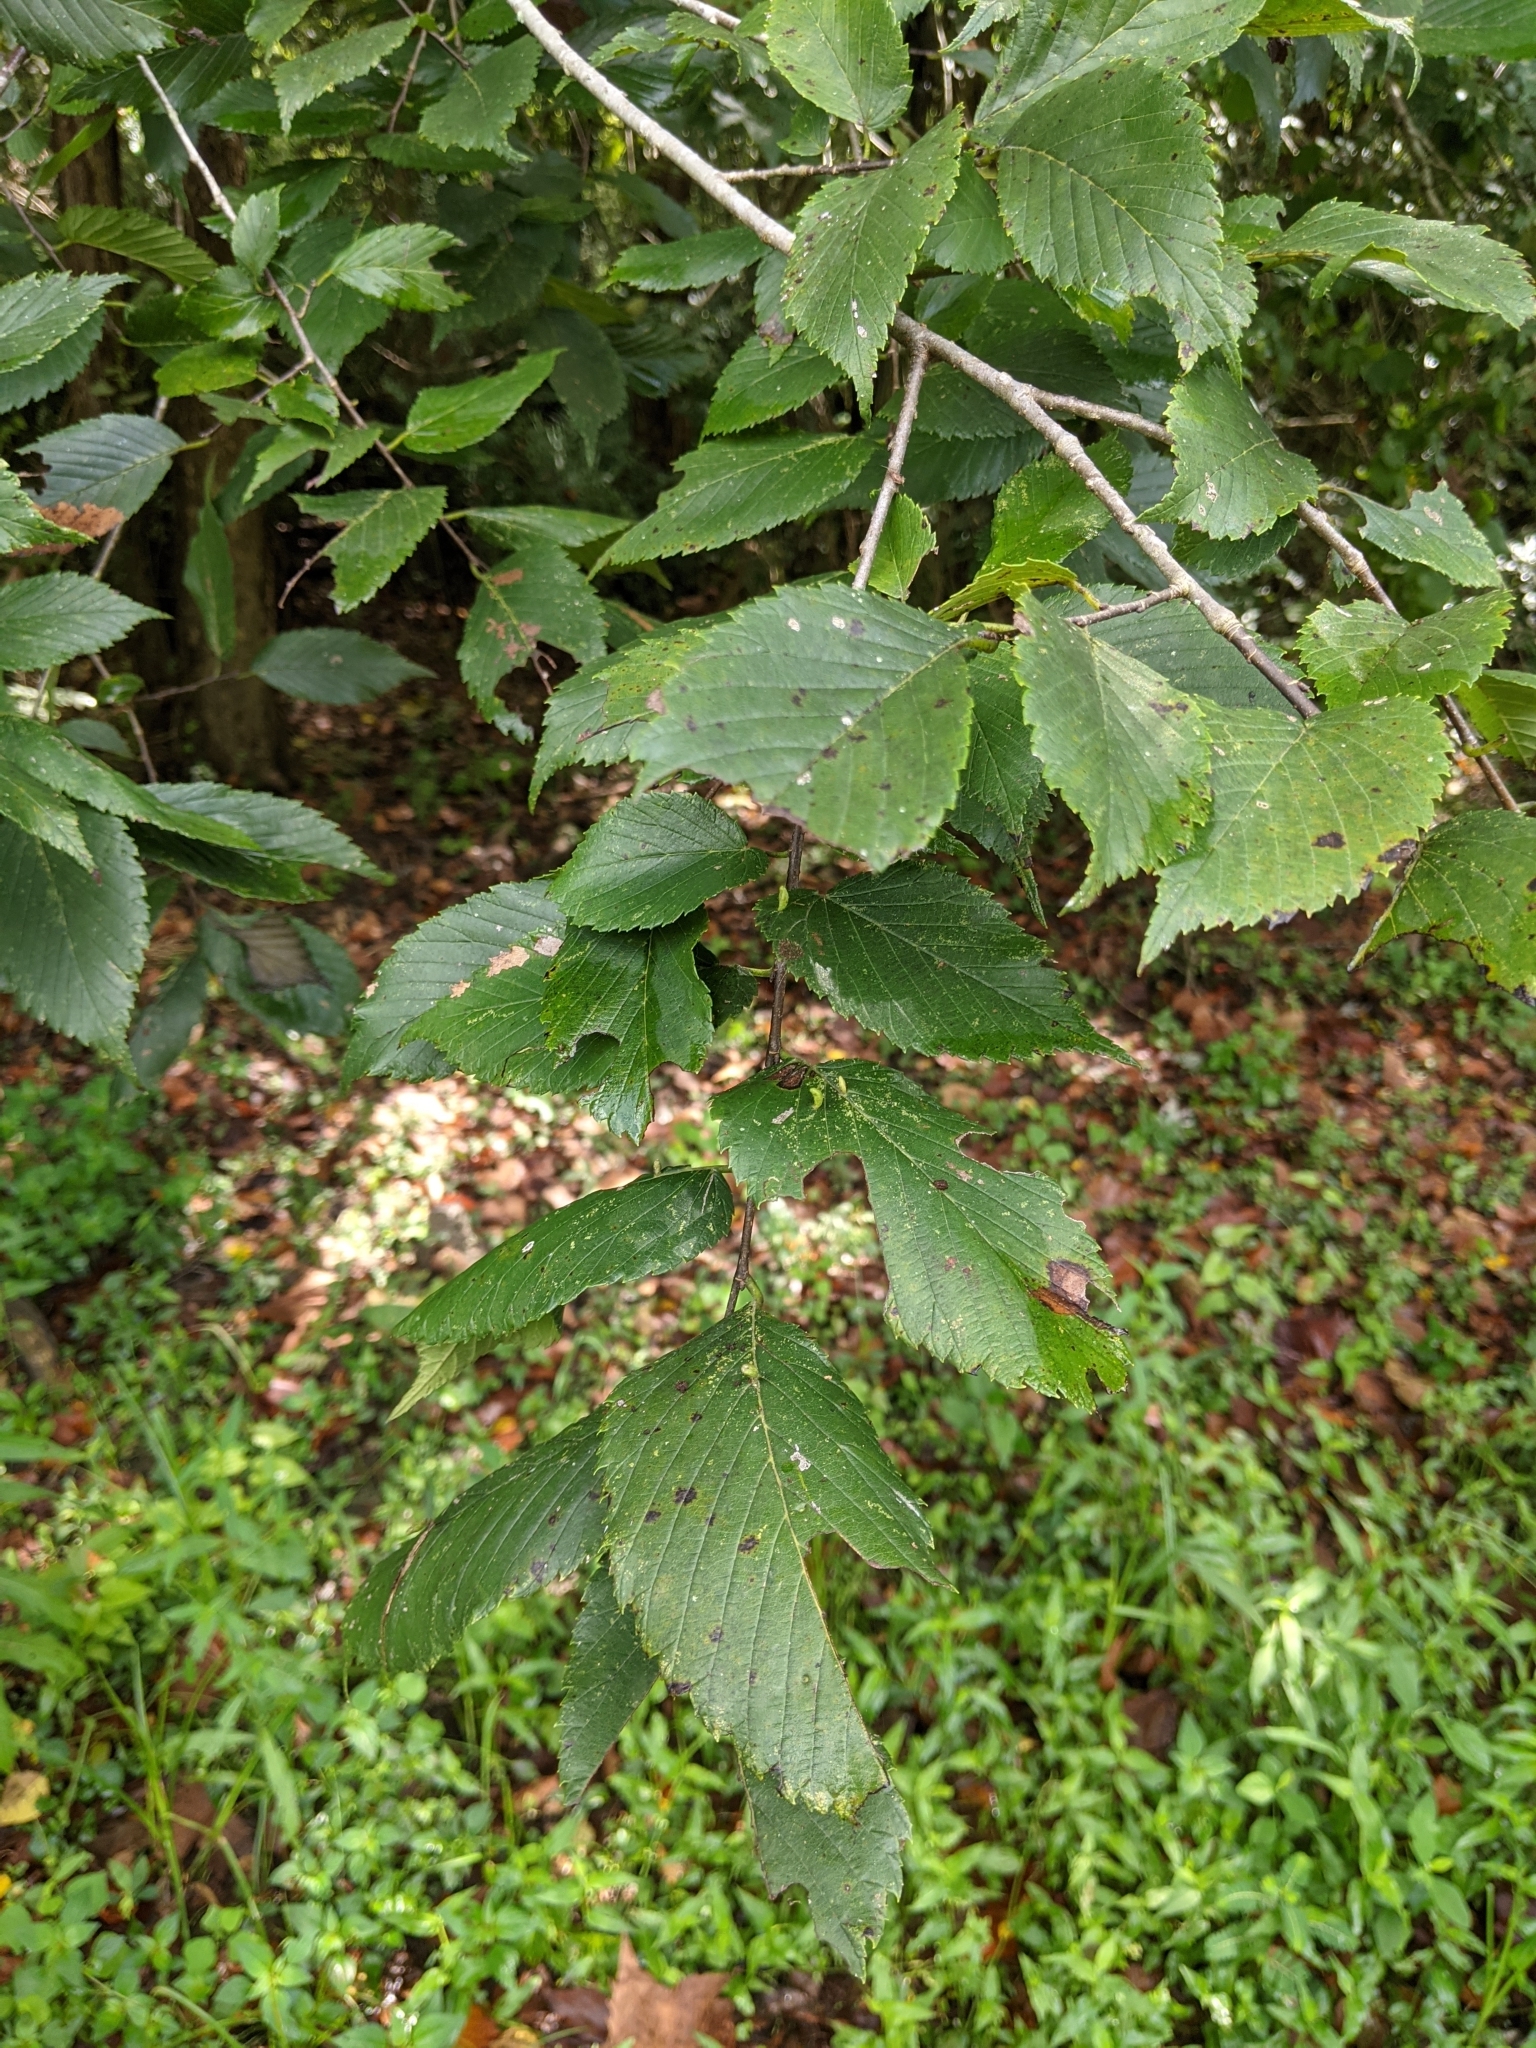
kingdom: Animalia
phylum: Arthropoda
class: Arachnida
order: Trombidiformes
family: Eriophyidae
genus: Aceria
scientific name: Aceria
